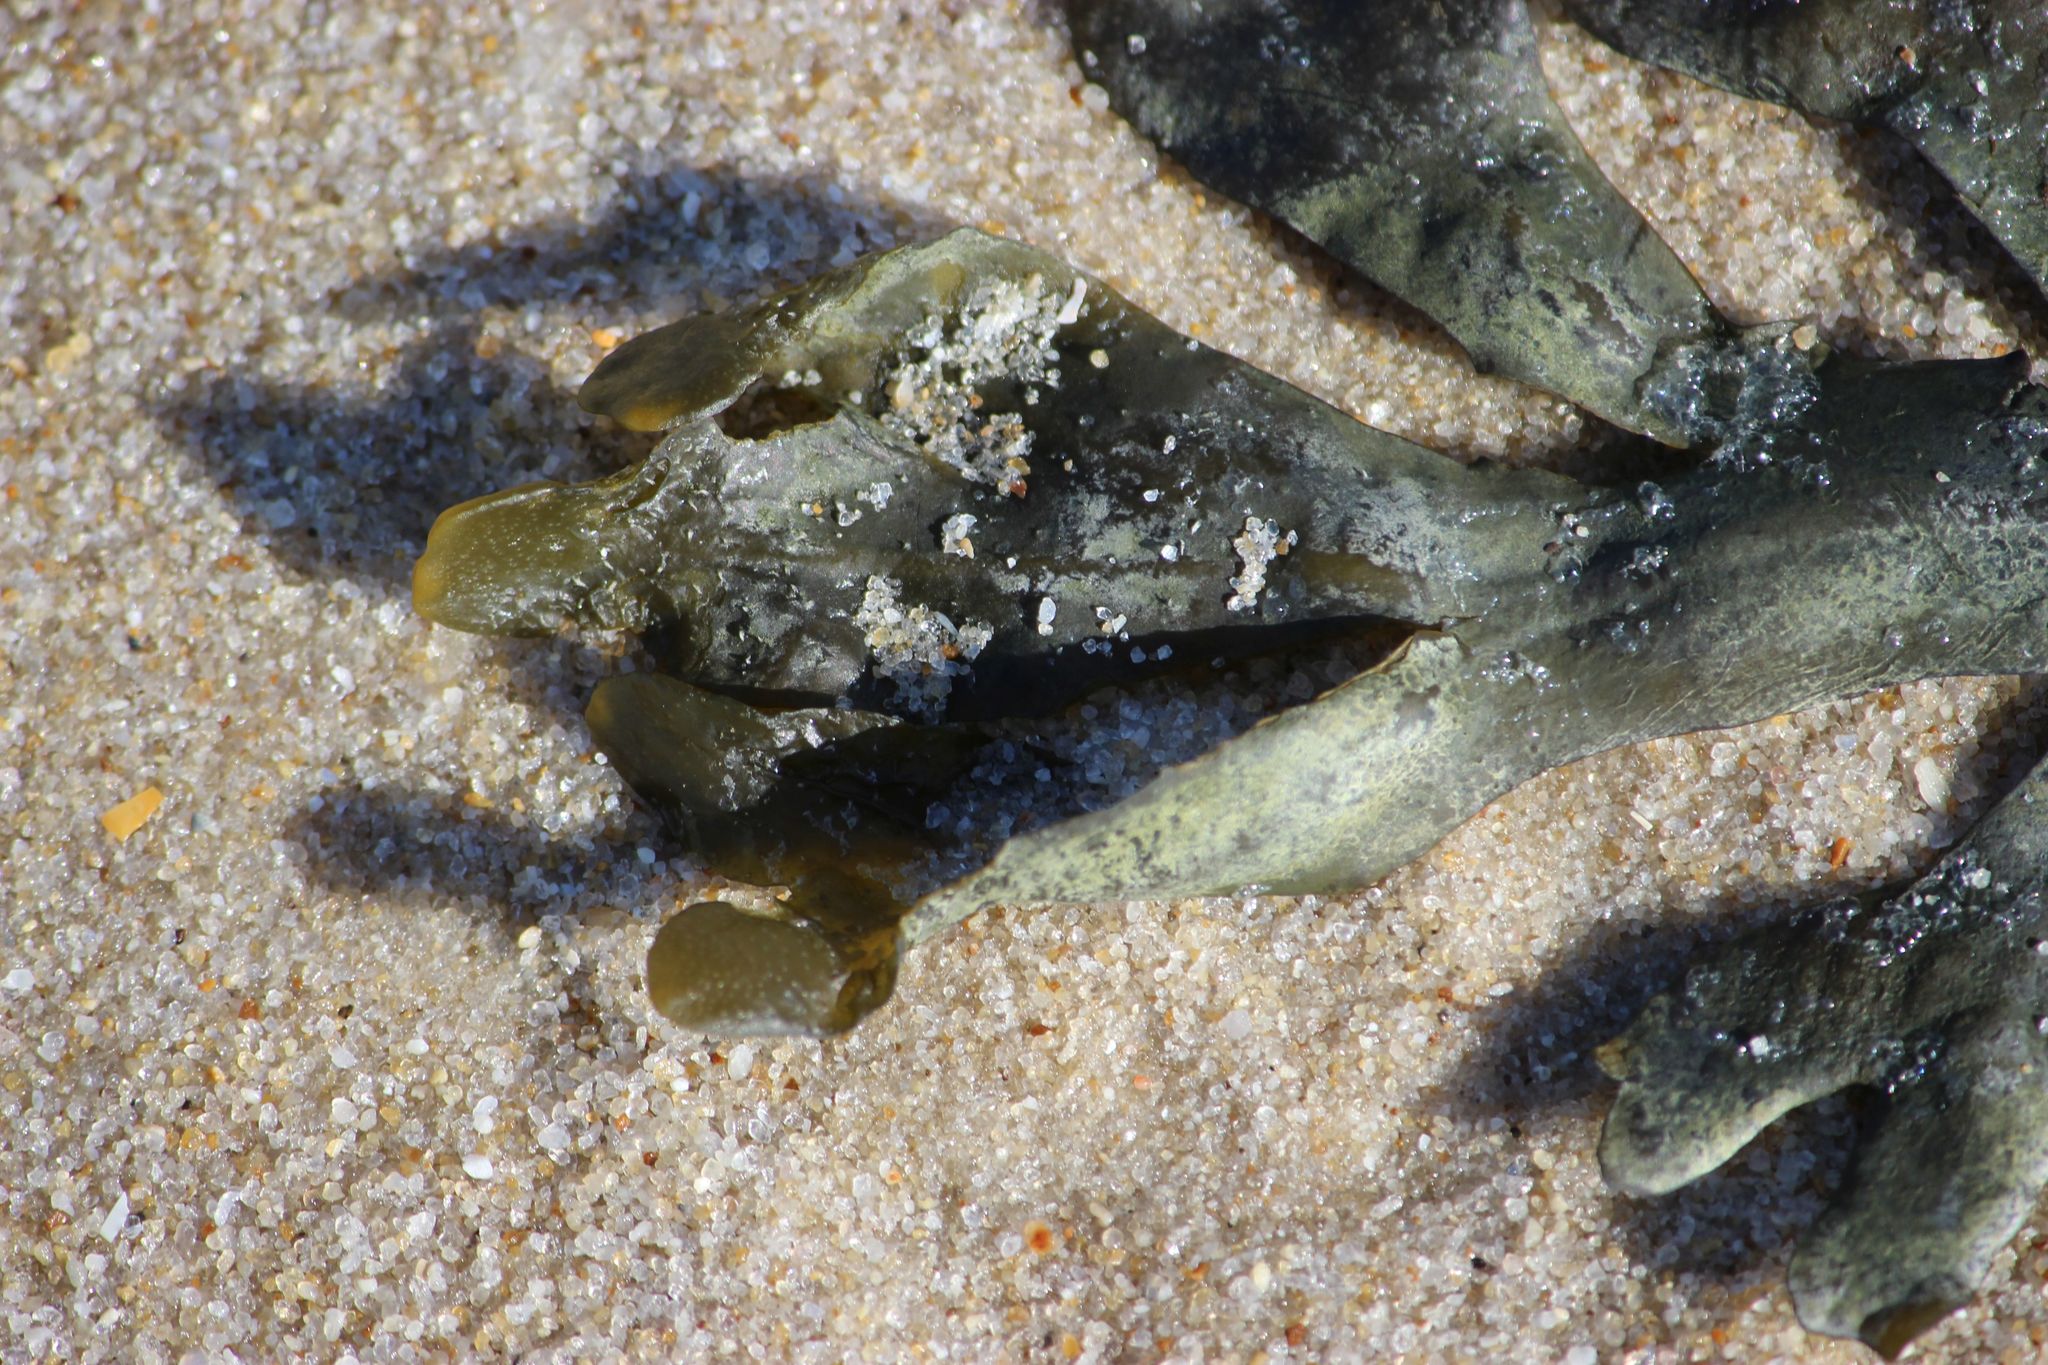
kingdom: Chromista
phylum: Ochrophyta
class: Phaeophyceae
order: Fucales
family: Fucaceae
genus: Fucus
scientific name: Fucus vesiculosus
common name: Bladder wrack
